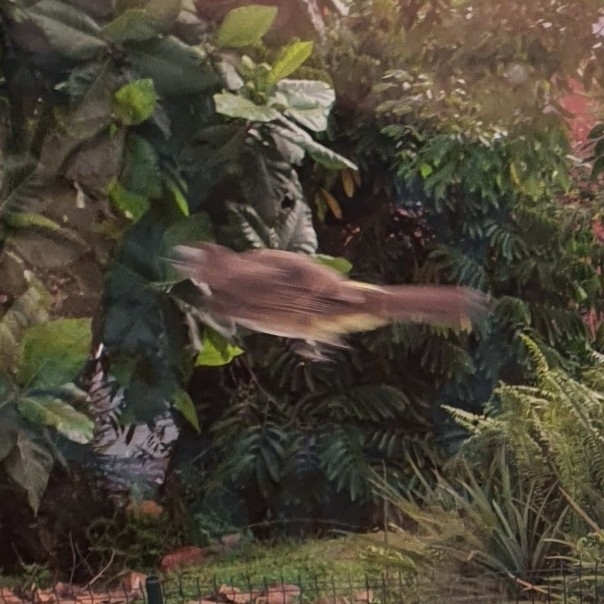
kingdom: Animalia
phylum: Chordata
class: Aves
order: Passeriformes
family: Pycnonotidae
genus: Pycnonotus
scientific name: Pycnonotus goiavier
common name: Yellow-vented bulbul
